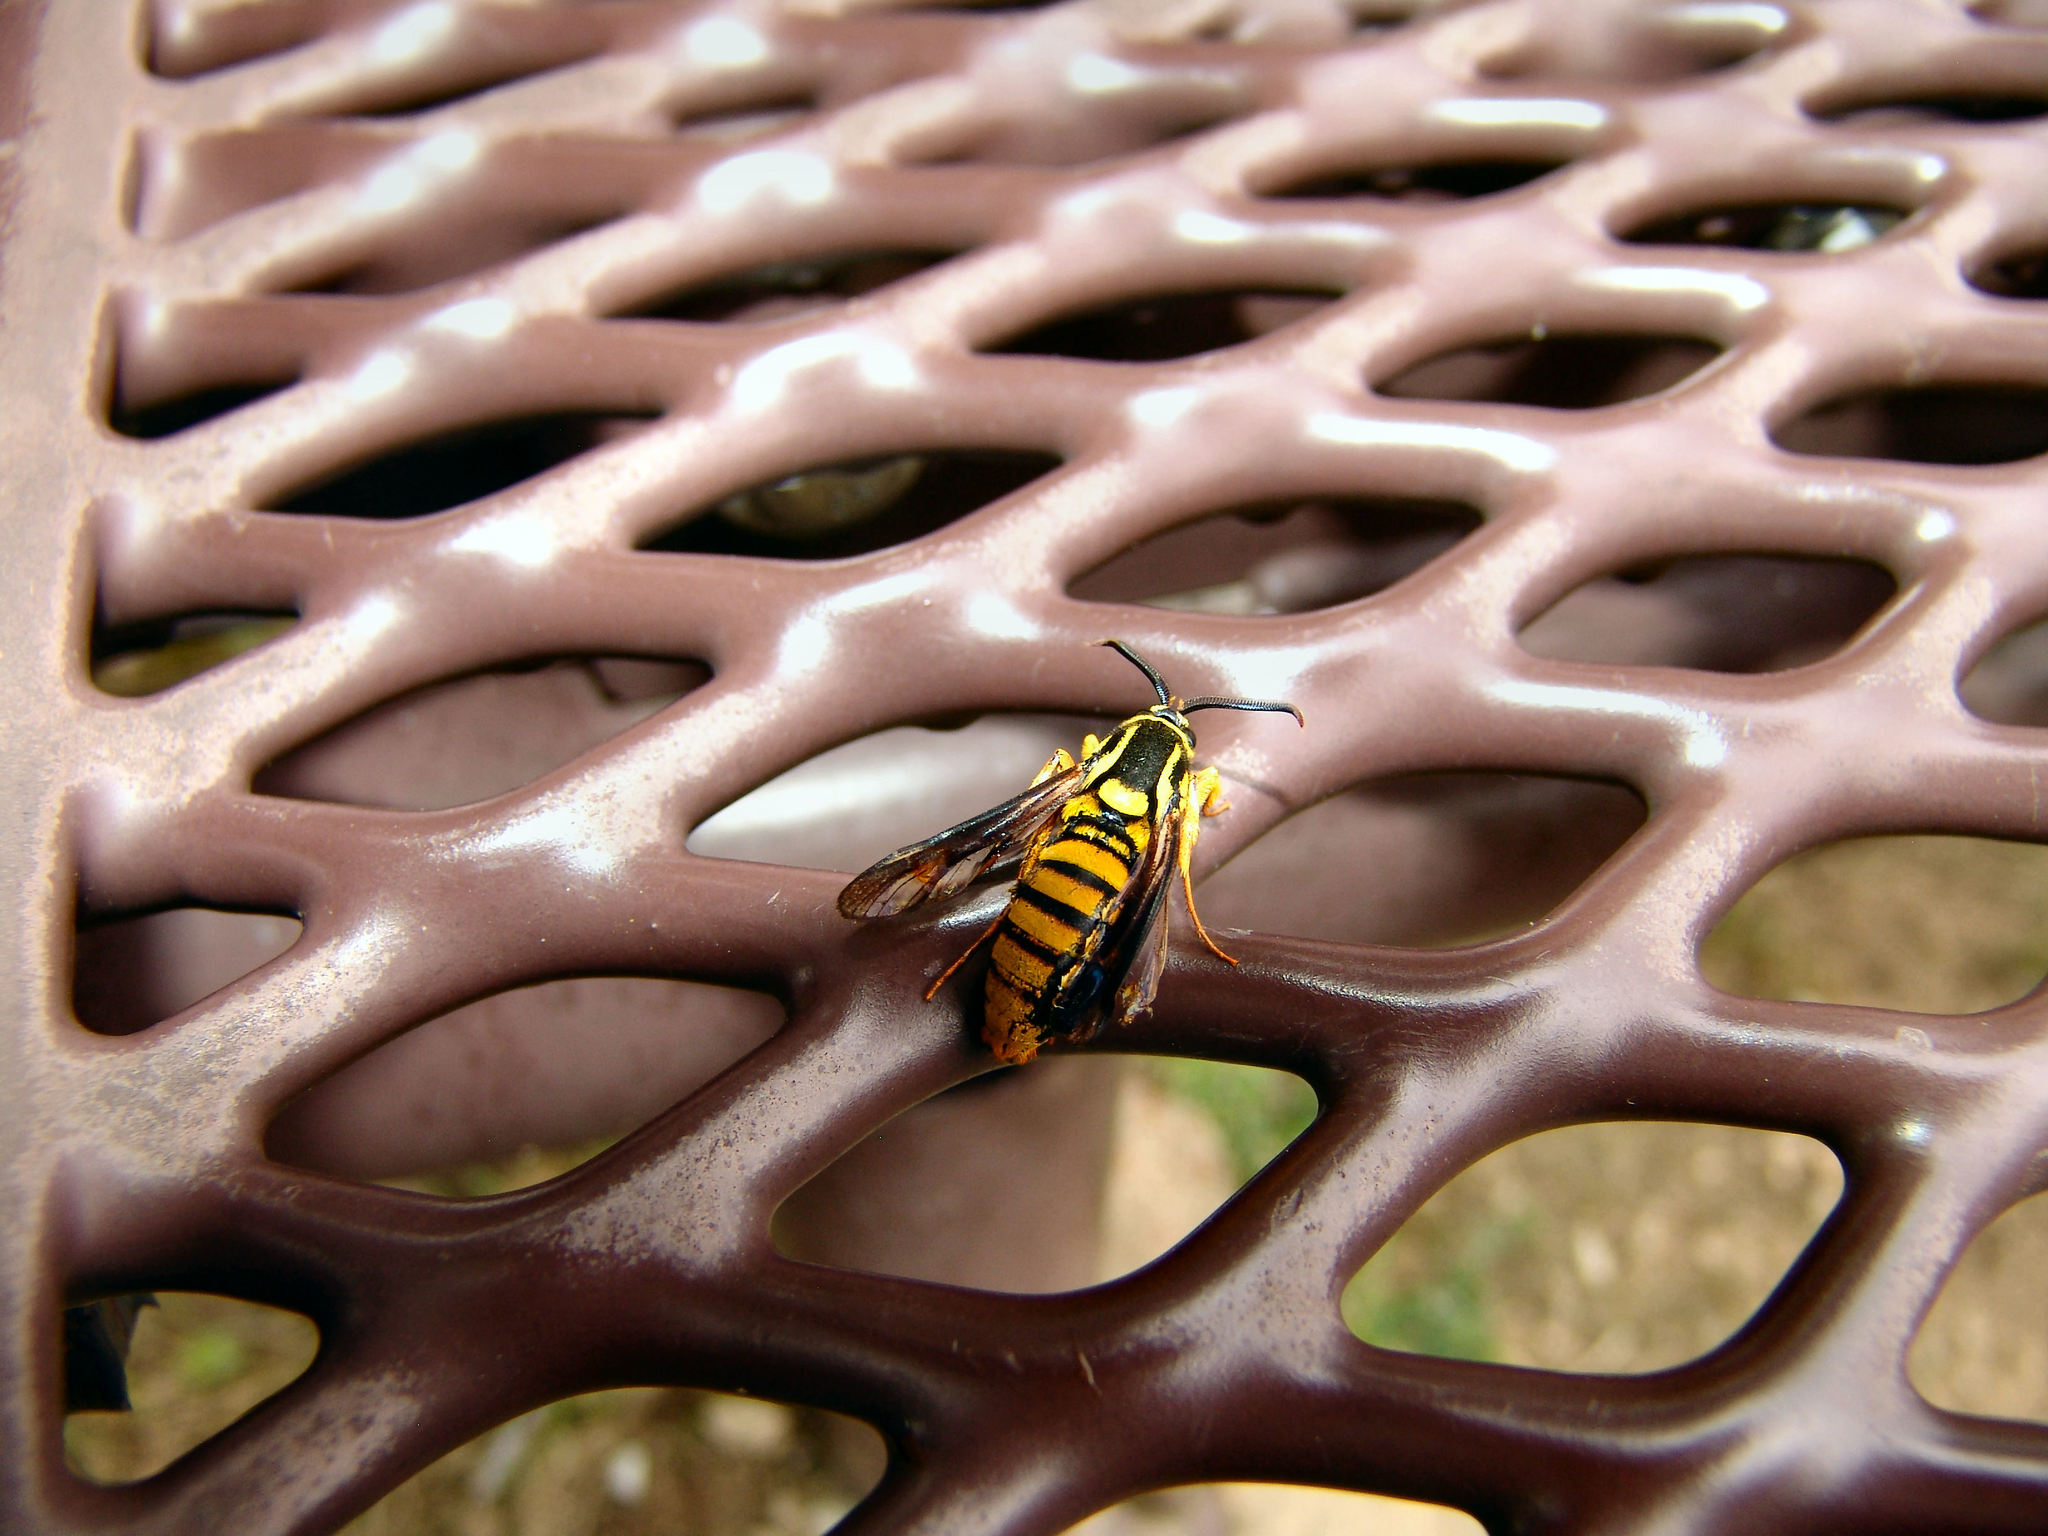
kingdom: Animalia
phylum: Arthropoda
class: Insecta
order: Lepidoptera
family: Sesiidae
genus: Paranthrene
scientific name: Paranthrene simulans
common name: Hornet clearwing moth
